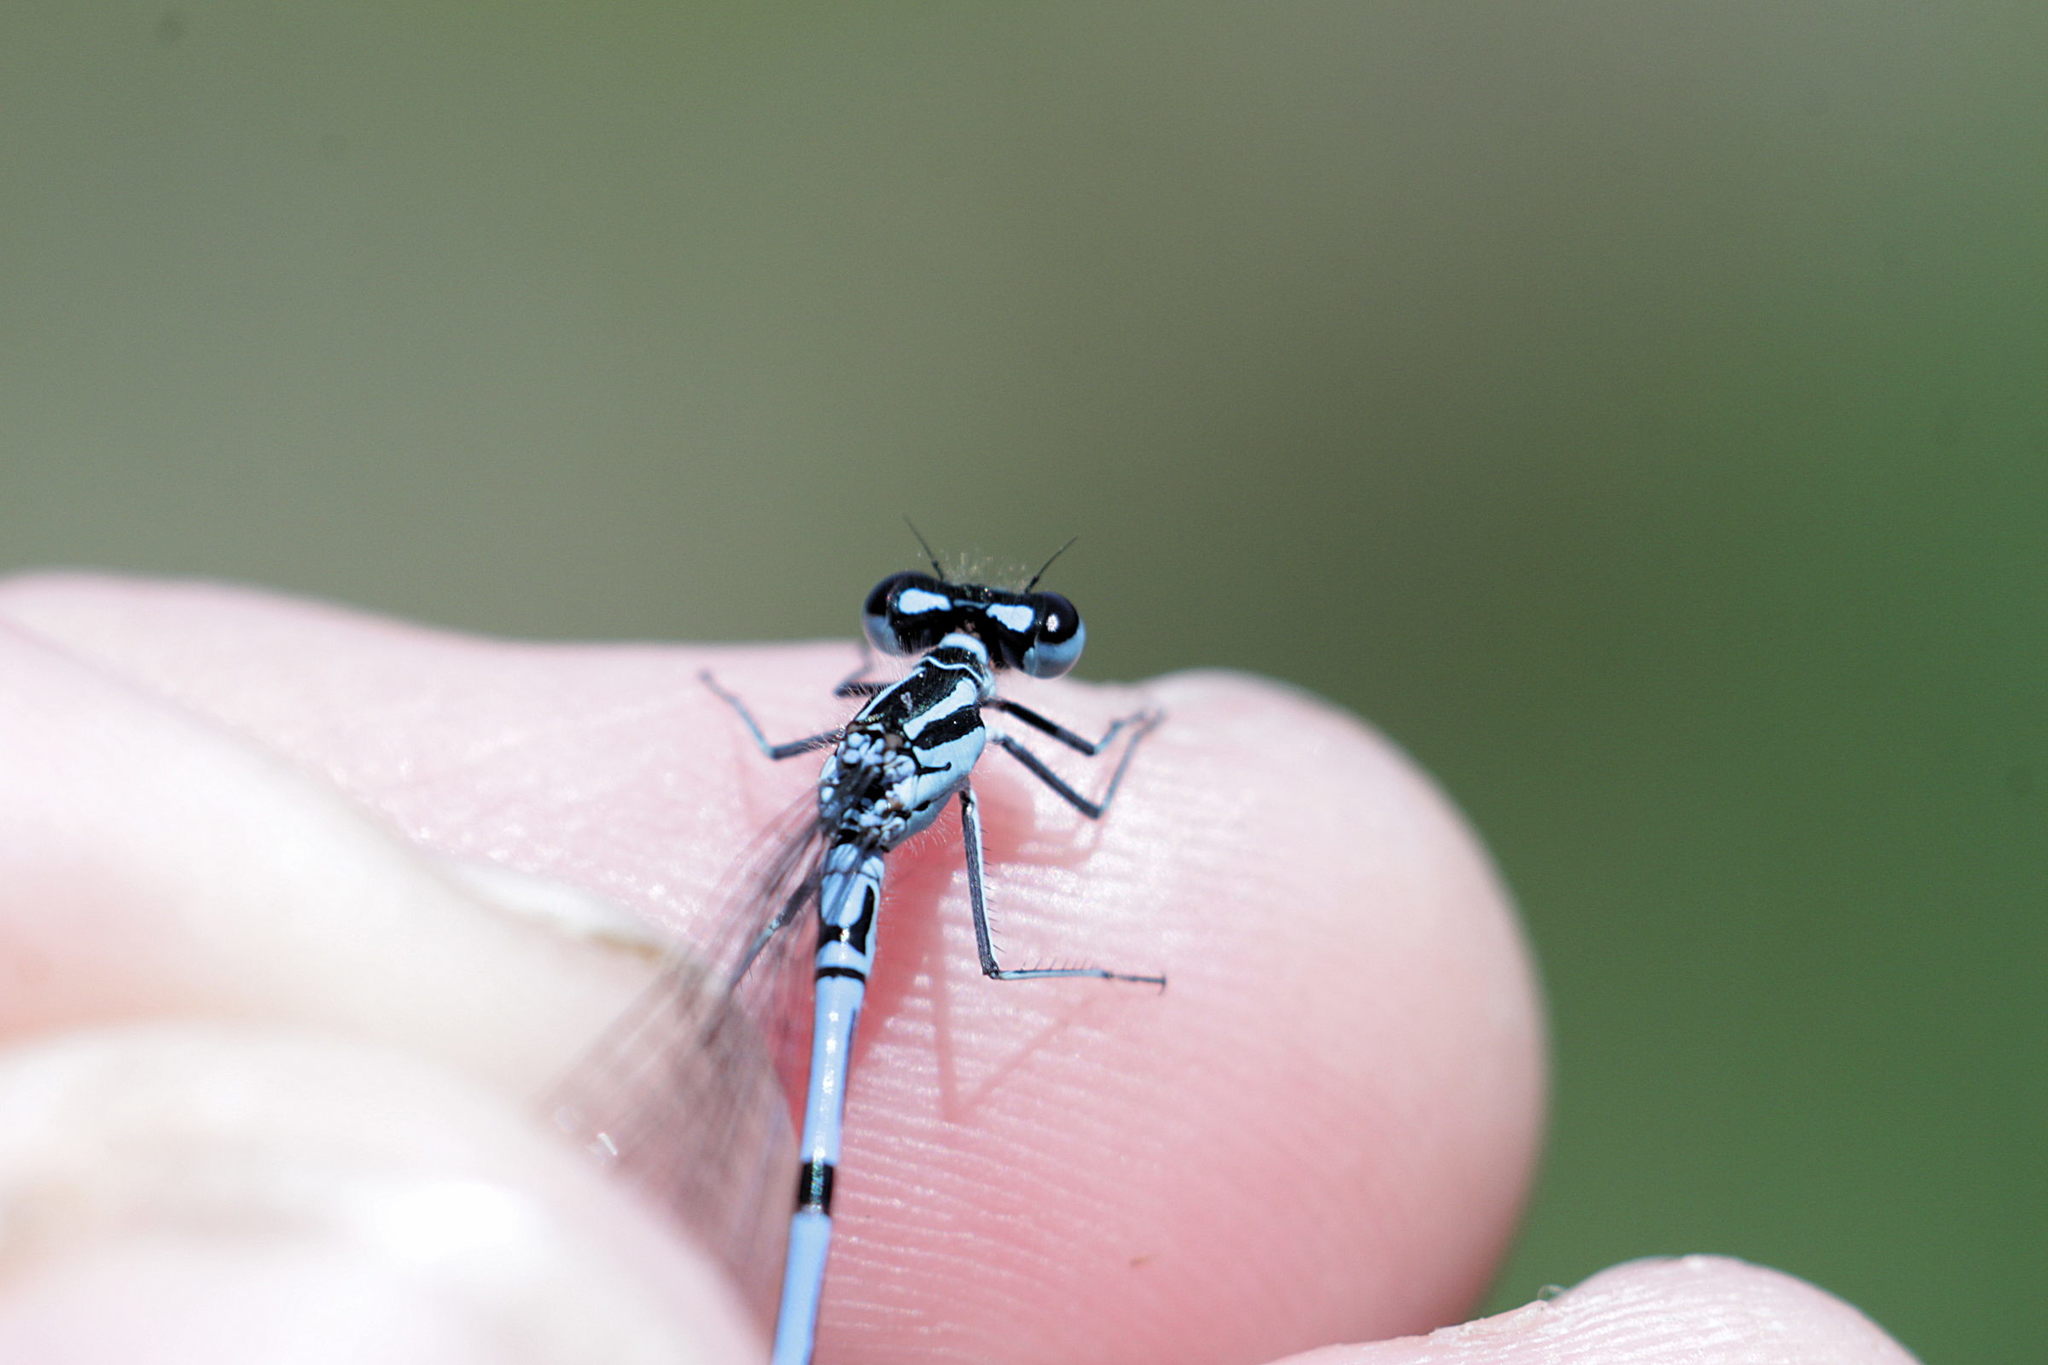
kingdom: Animalia
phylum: Arthropoda
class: Insecta
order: Odonata
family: Coenagrionidae
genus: Coenagrion
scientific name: Coenagrion puella
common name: Azure damselfly
